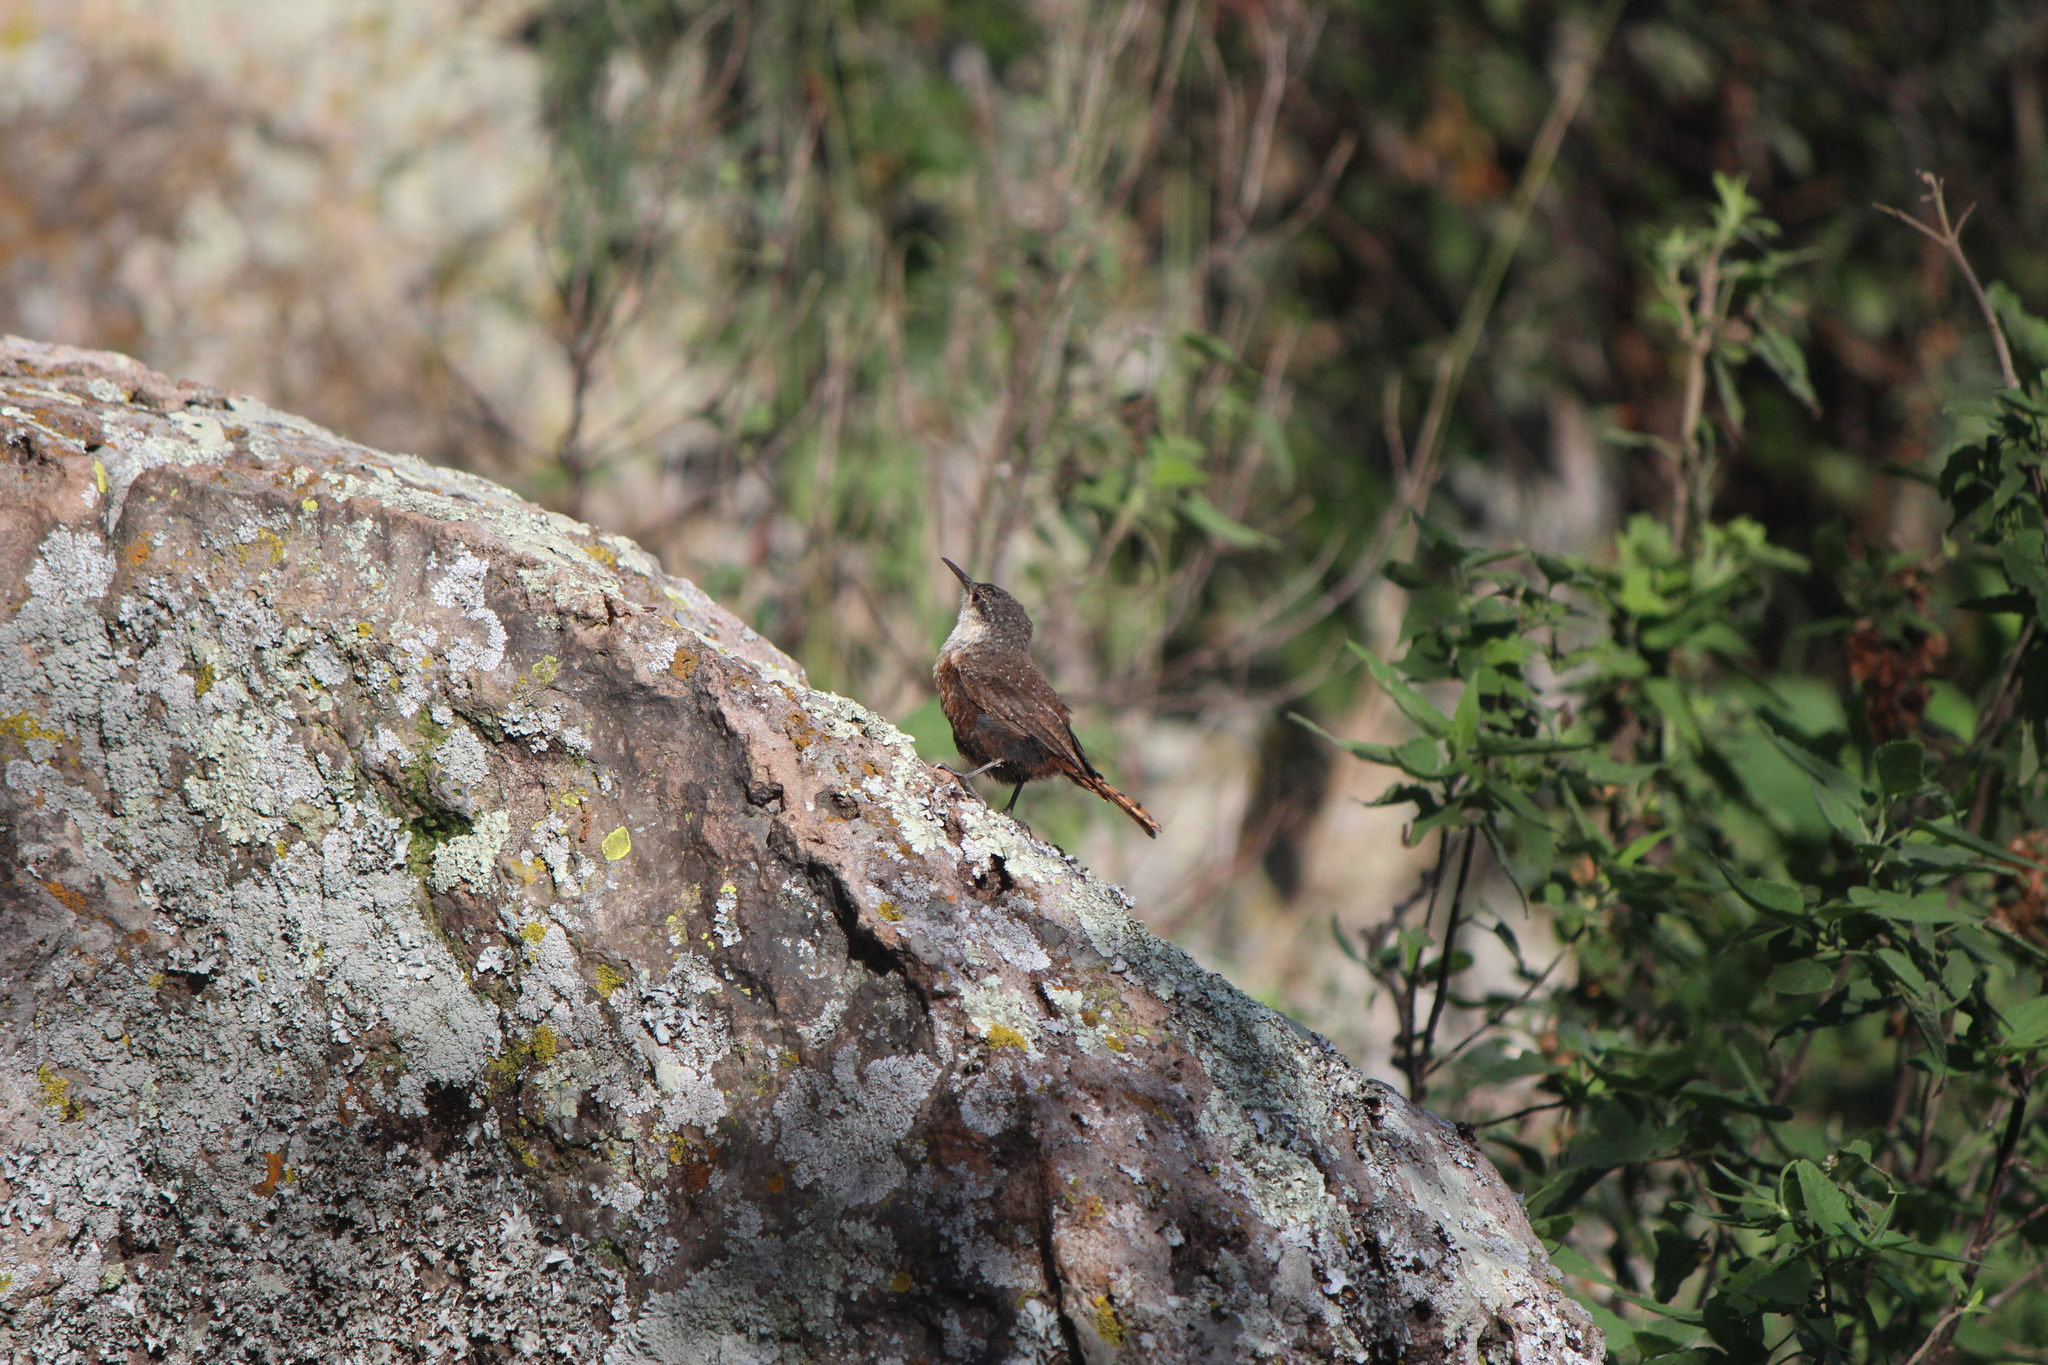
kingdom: Animalia
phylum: Chordata
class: Aves
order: Passeriformes
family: Troglodytidae
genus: Catherpes
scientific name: Catherpes mexicanus
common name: Canyon wren
